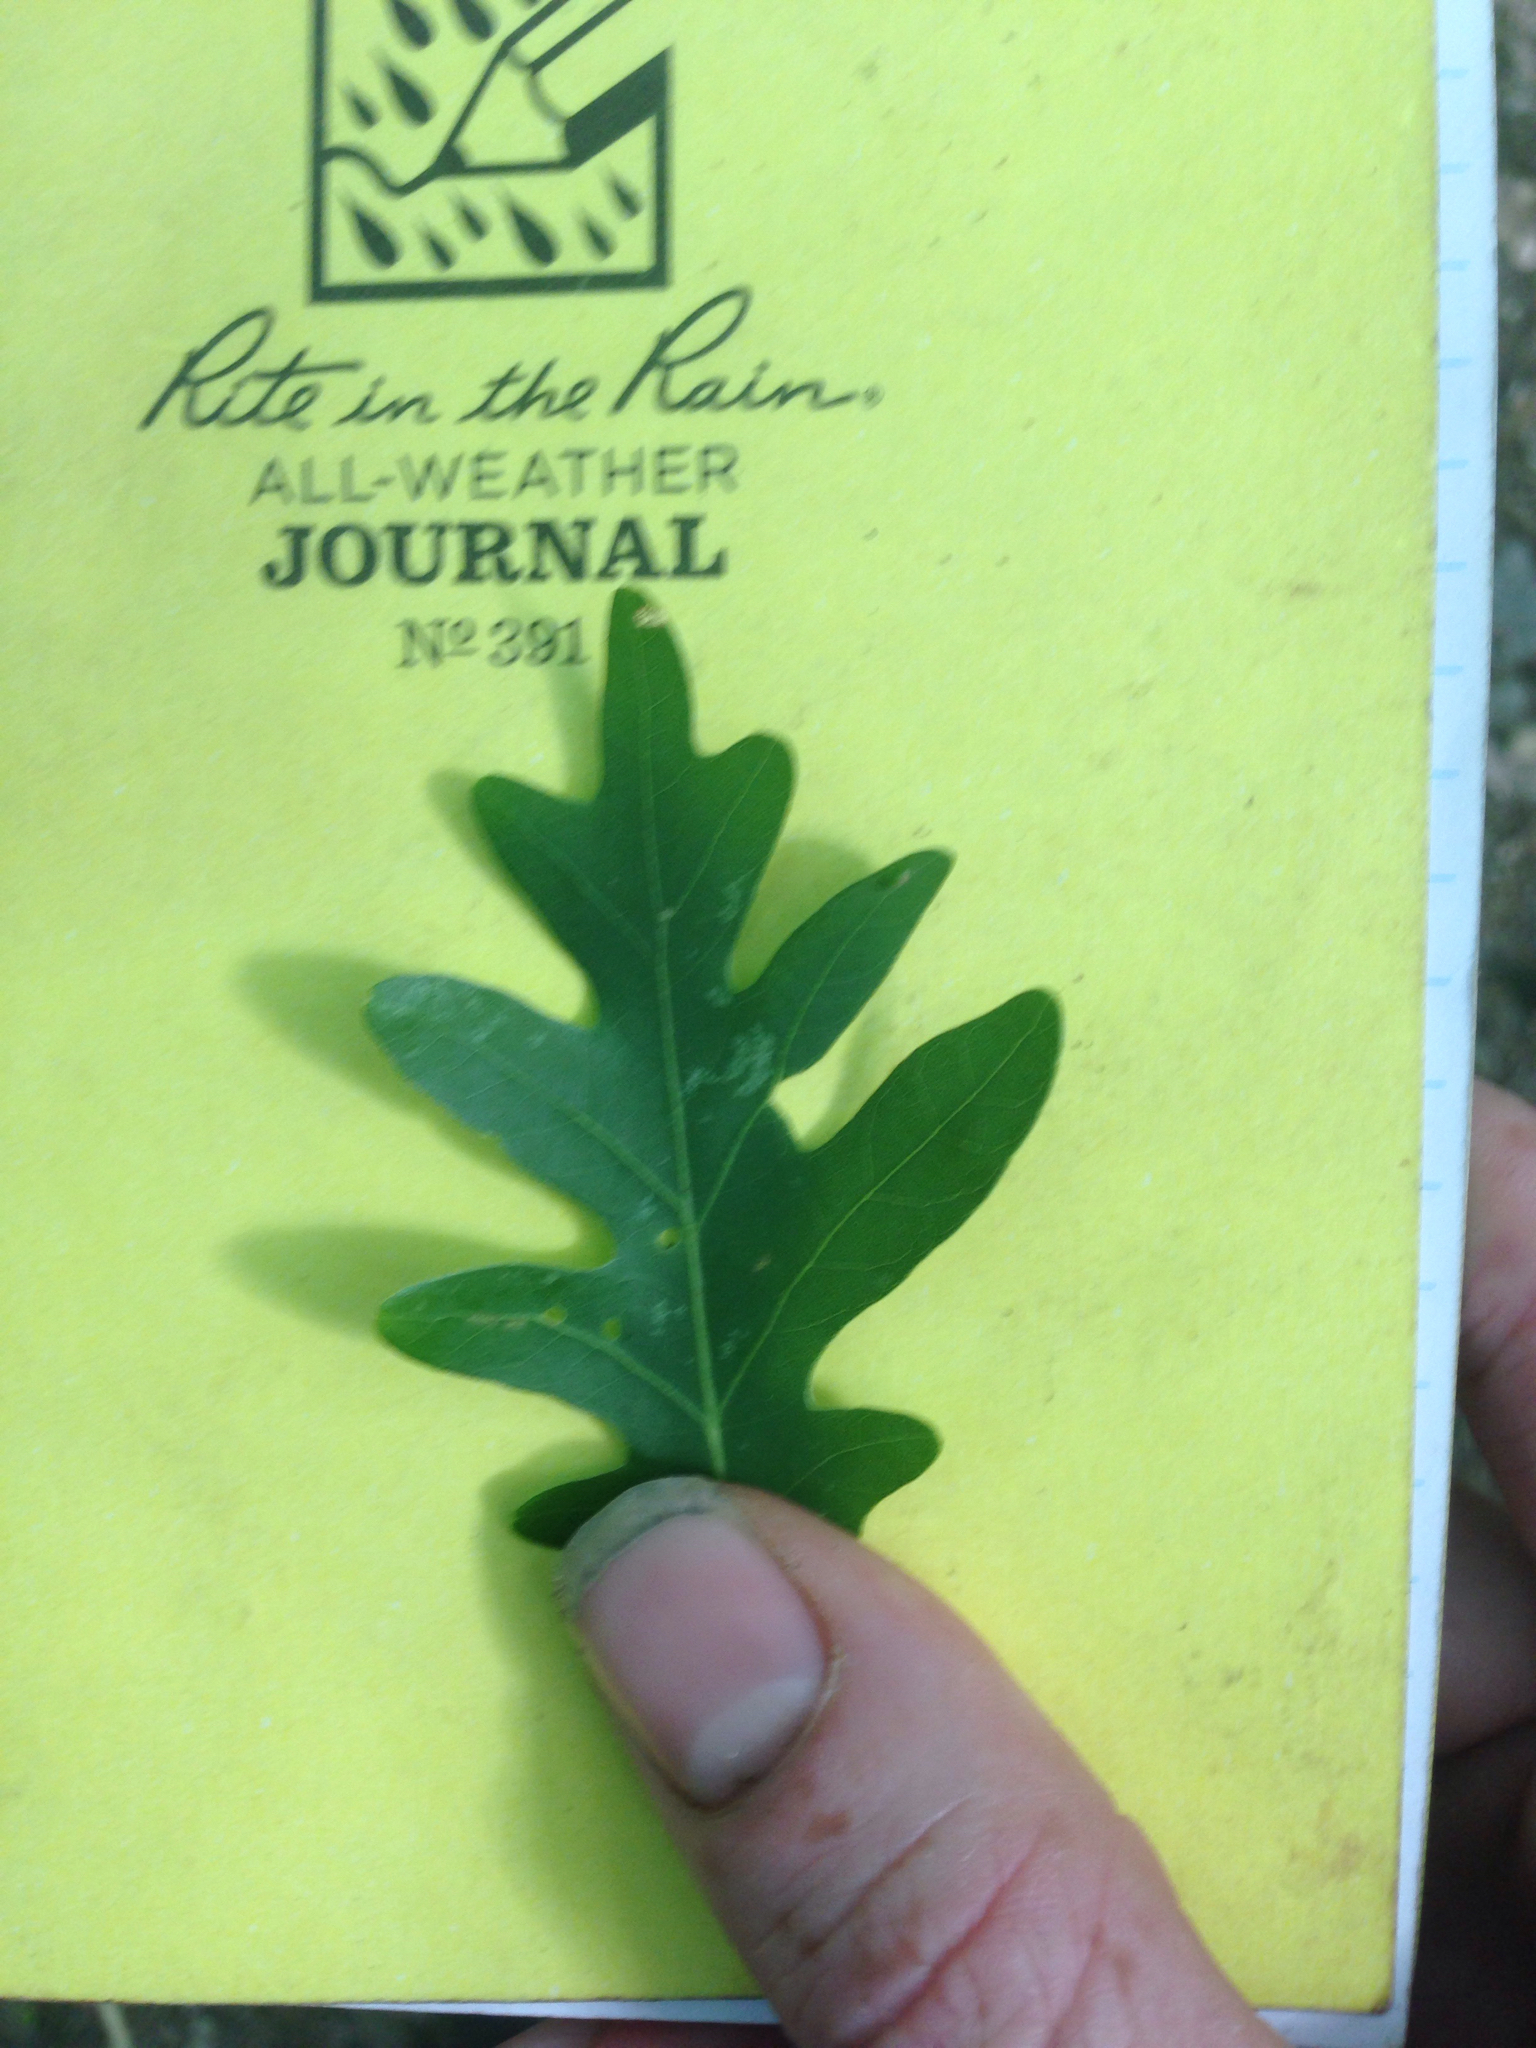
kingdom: Plantae
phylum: Tracheophyta
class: Magnoliopsida
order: Fagales
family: Fagaceae
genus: Quercus
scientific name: Quercus alba
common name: White oak
